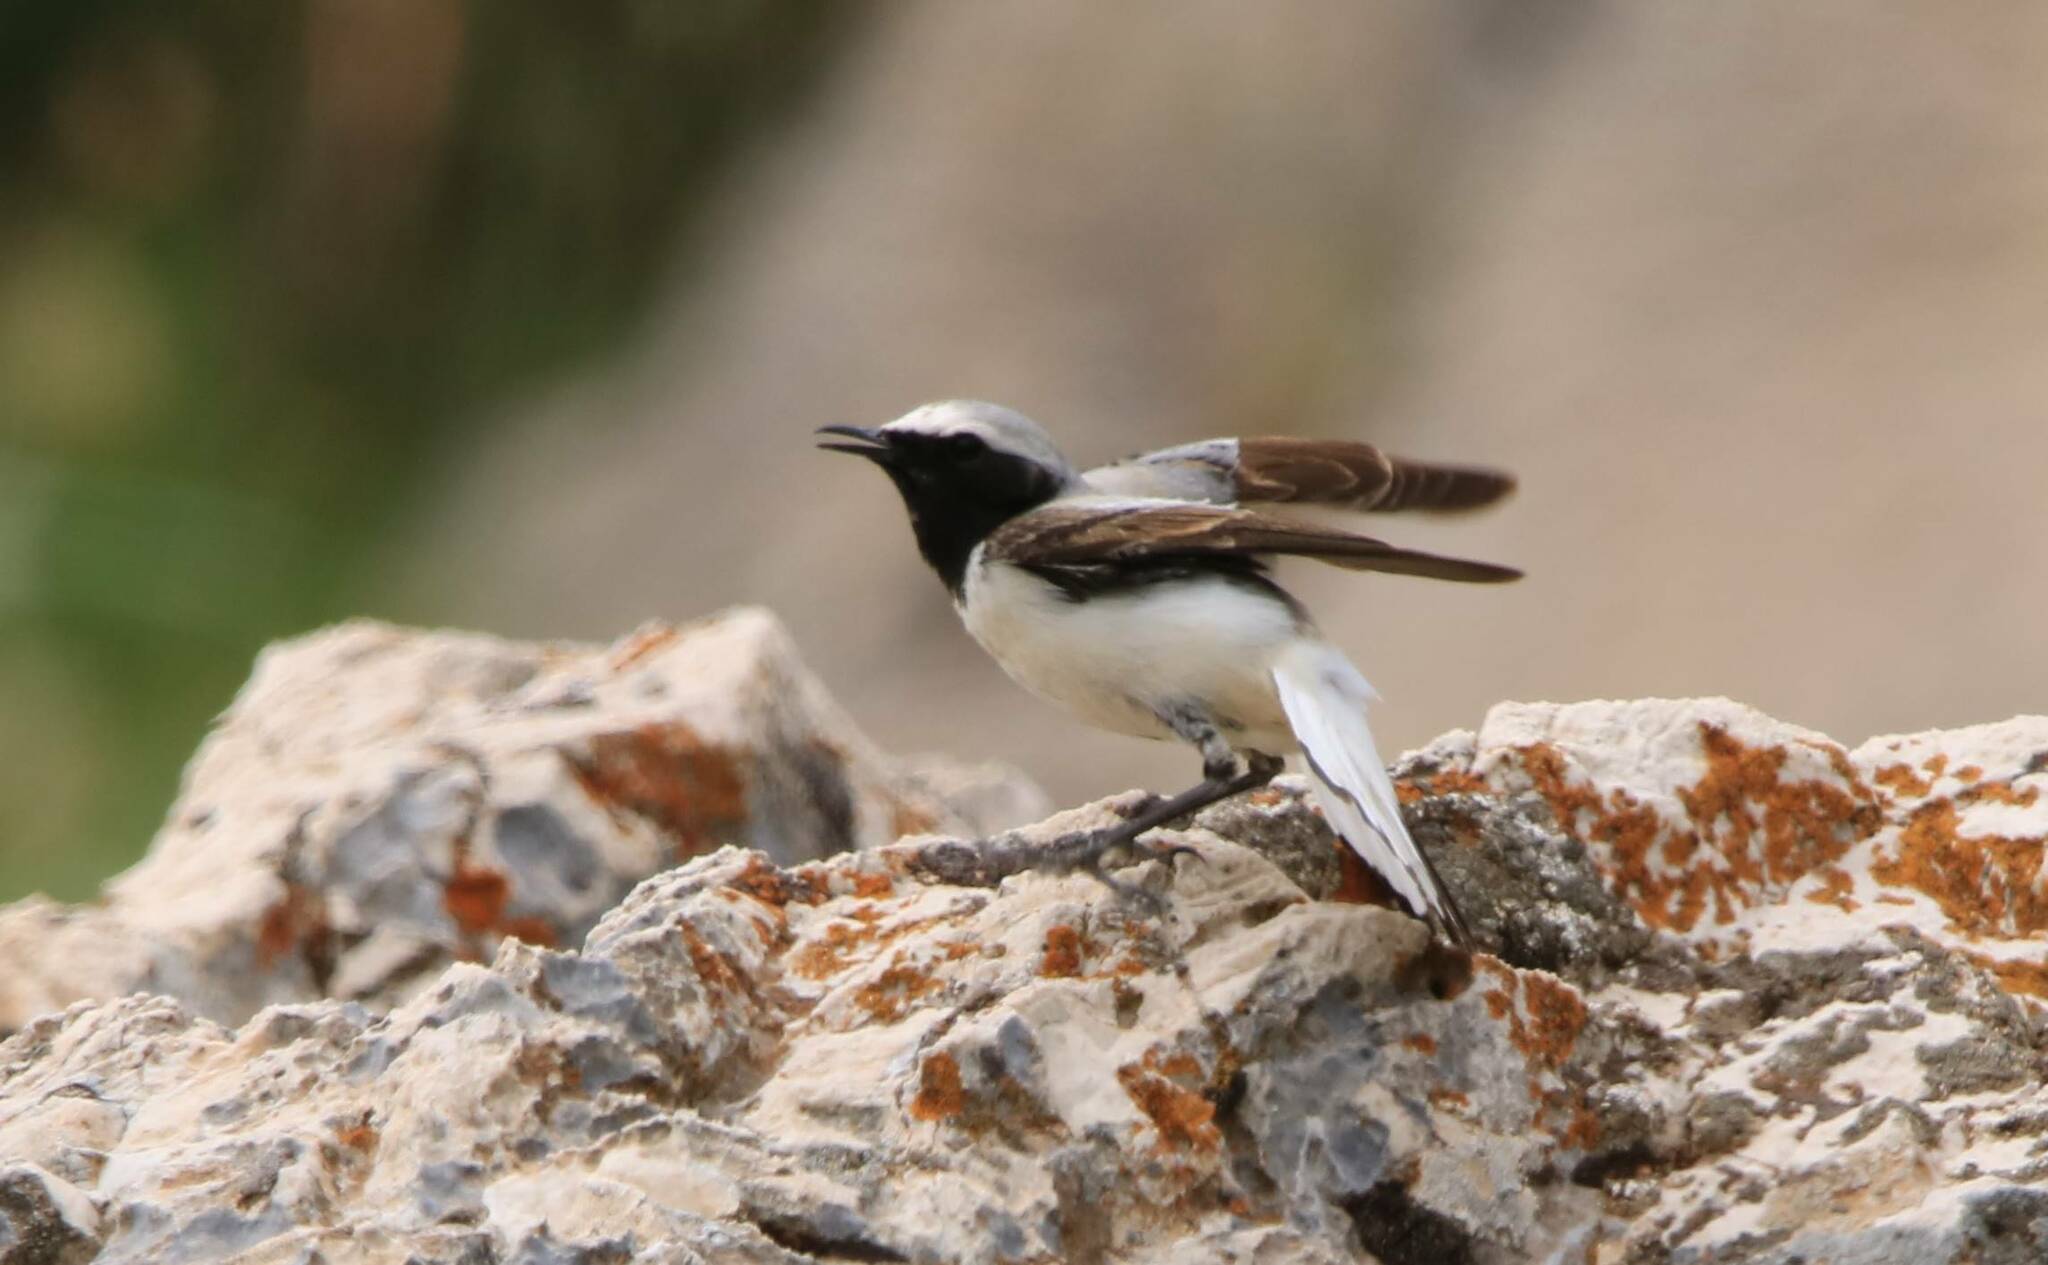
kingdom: Animalia
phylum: Chordata
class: Aves
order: Passeriformes
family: Muscicapidae
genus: Oenanthe
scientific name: Oenanthe oenanthe
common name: Northern wheatear
